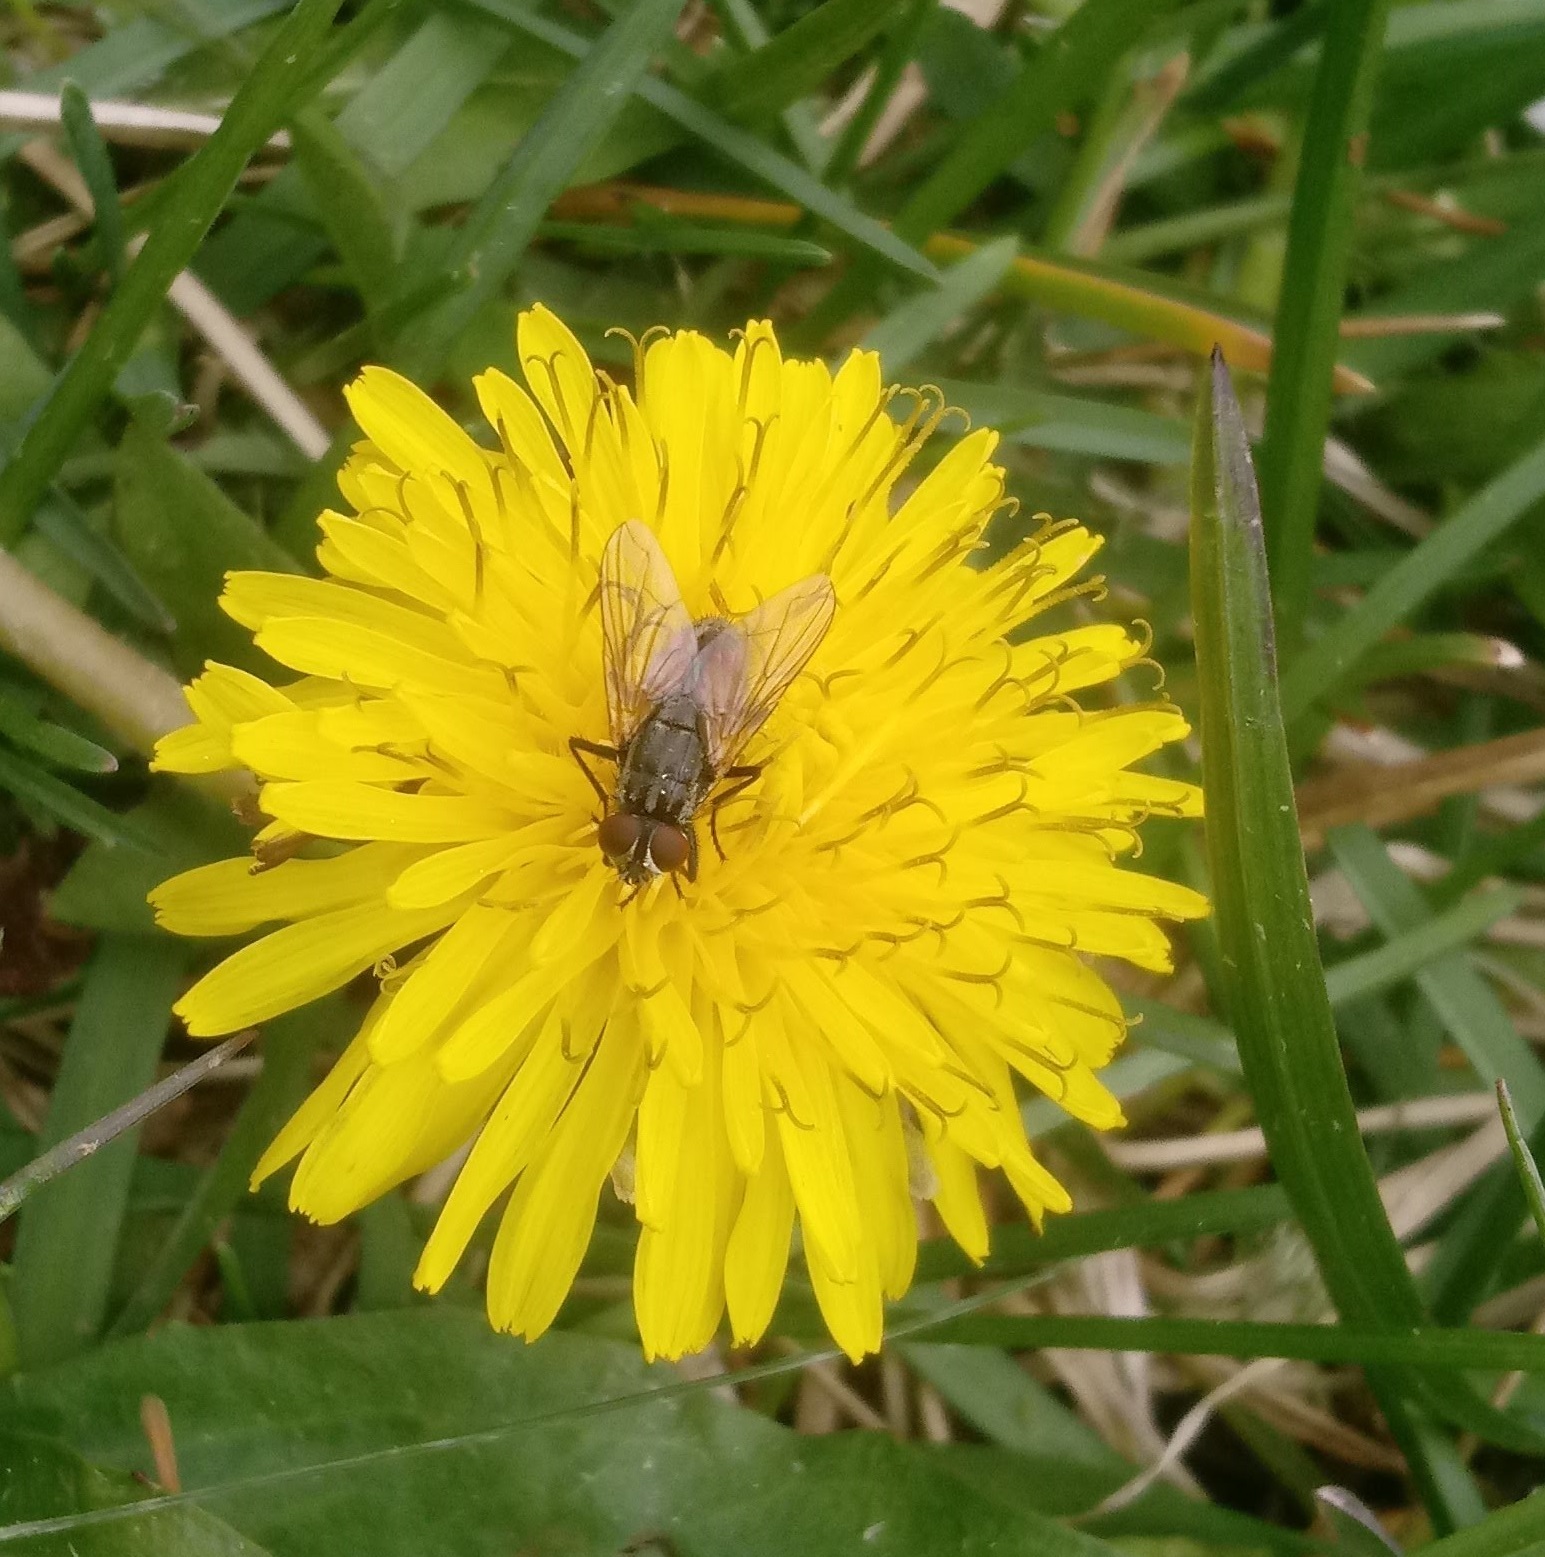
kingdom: Animalia
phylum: Arthropoda
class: Insecta
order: Diptera
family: Muscidae
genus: Musca
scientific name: Musca domestica
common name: House fly
